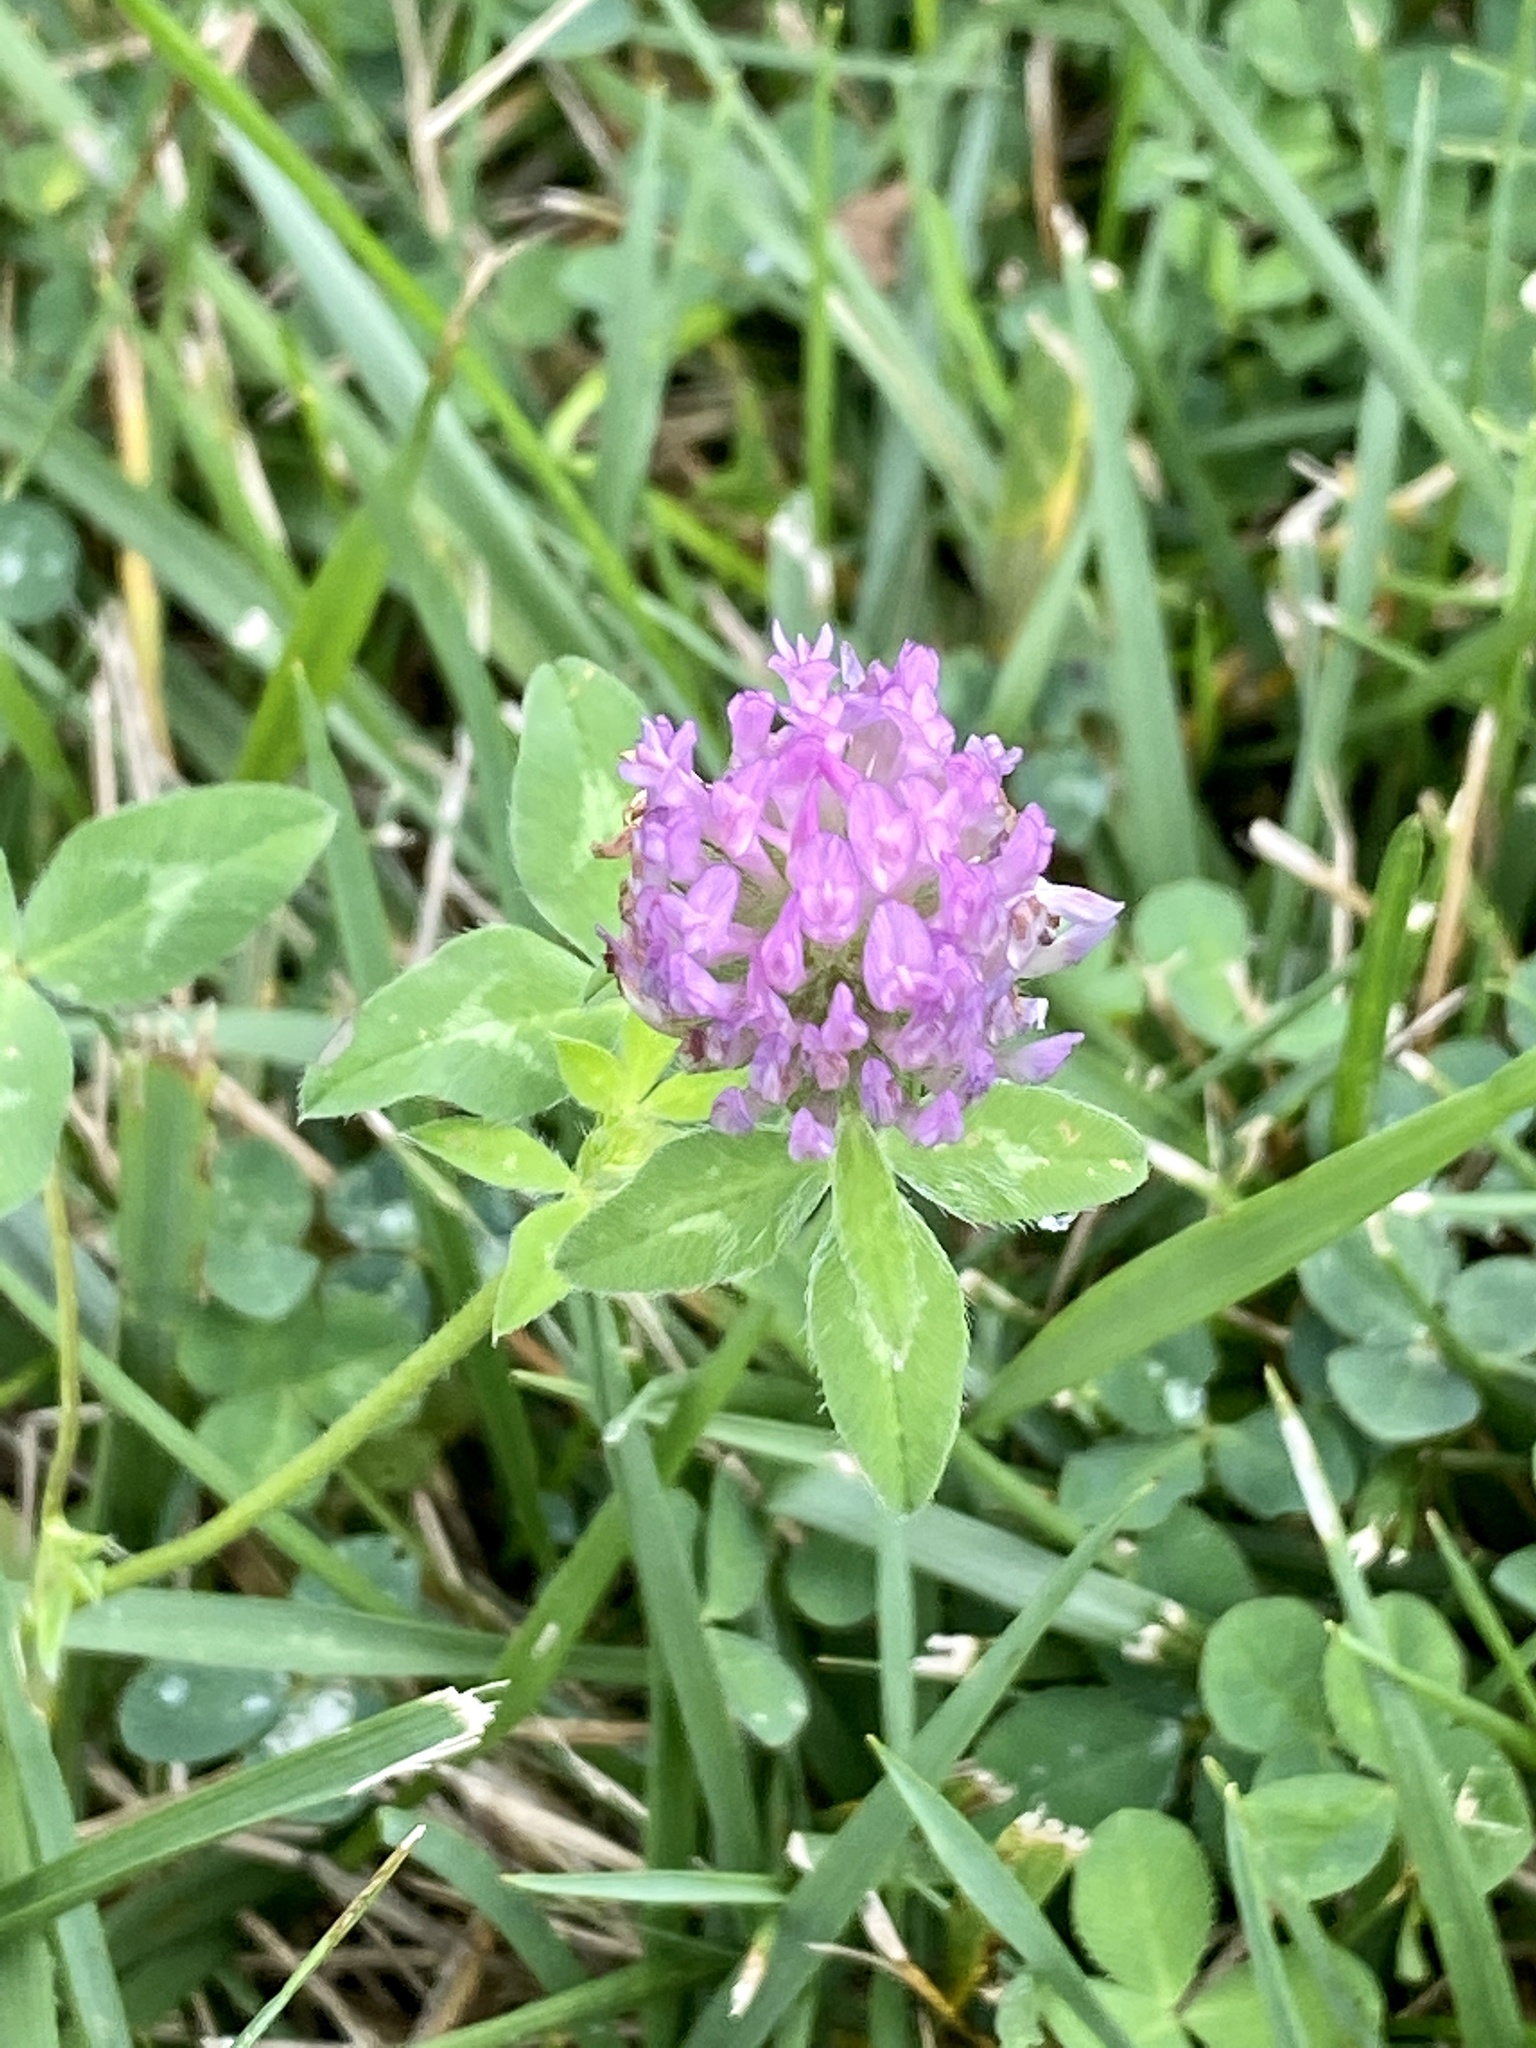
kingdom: Plantae
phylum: Tracheophyta
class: Magnoliopsida
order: Fabales
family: Fabaceae
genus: Trifolium
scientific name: Trifolium pratense
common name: Red clover
